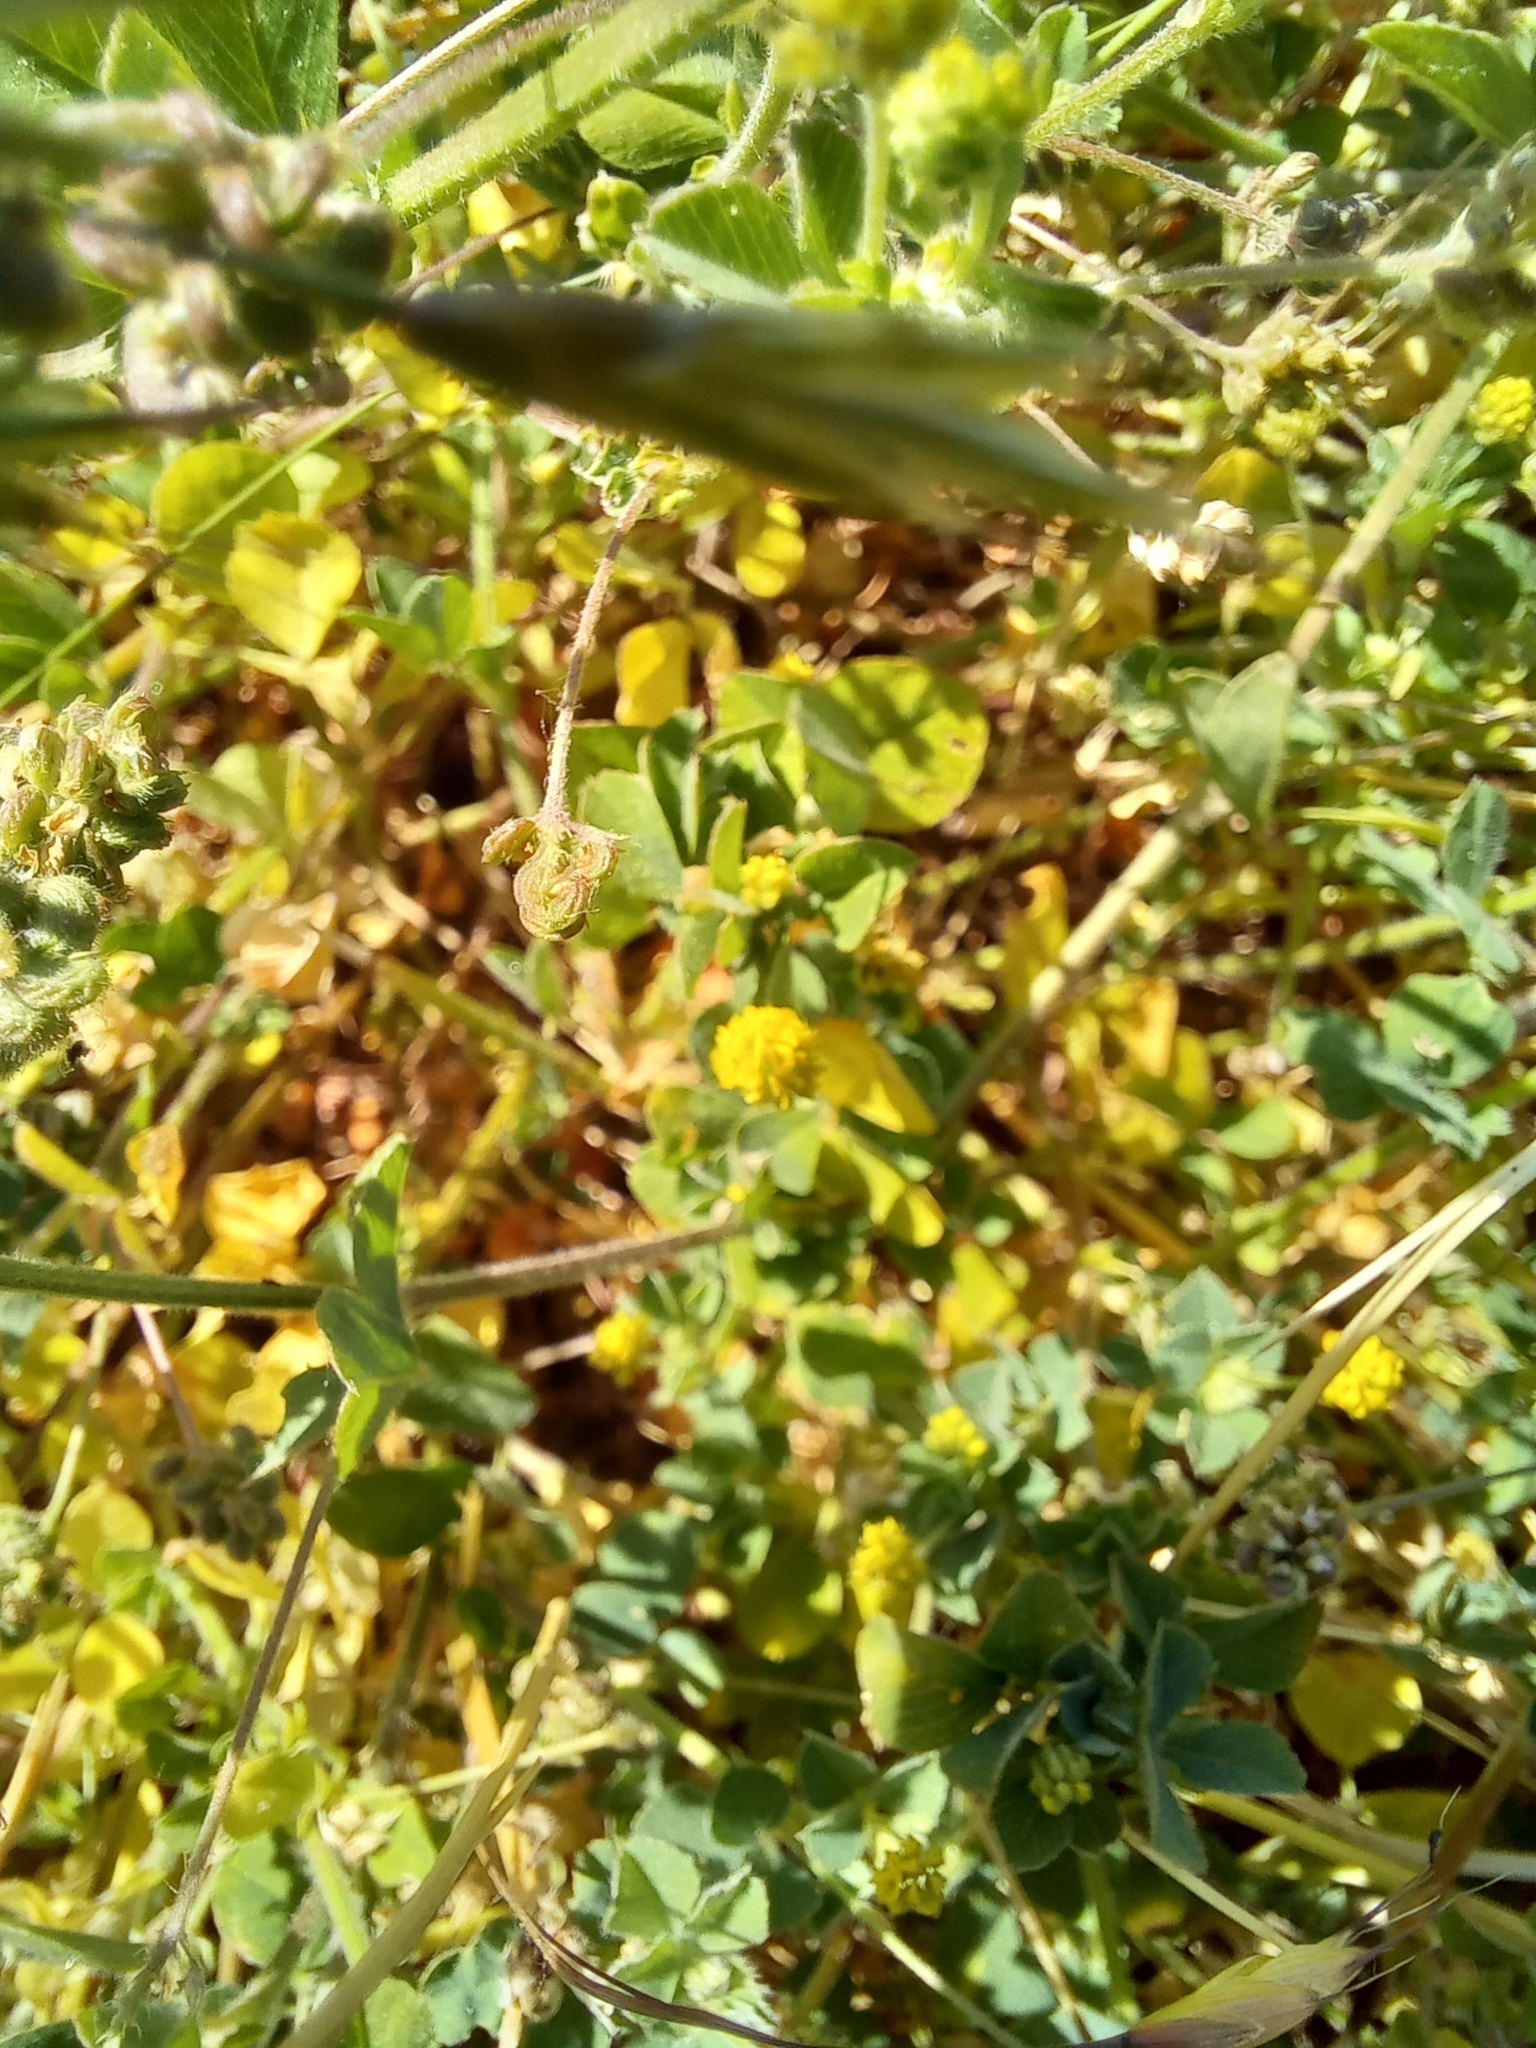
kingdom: Plantae
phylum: Tracheophyta
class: Magnoliopsida
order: Fabales
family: Fabaceae
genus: Medicago
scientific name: Medicago lupulina
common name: Black medick
